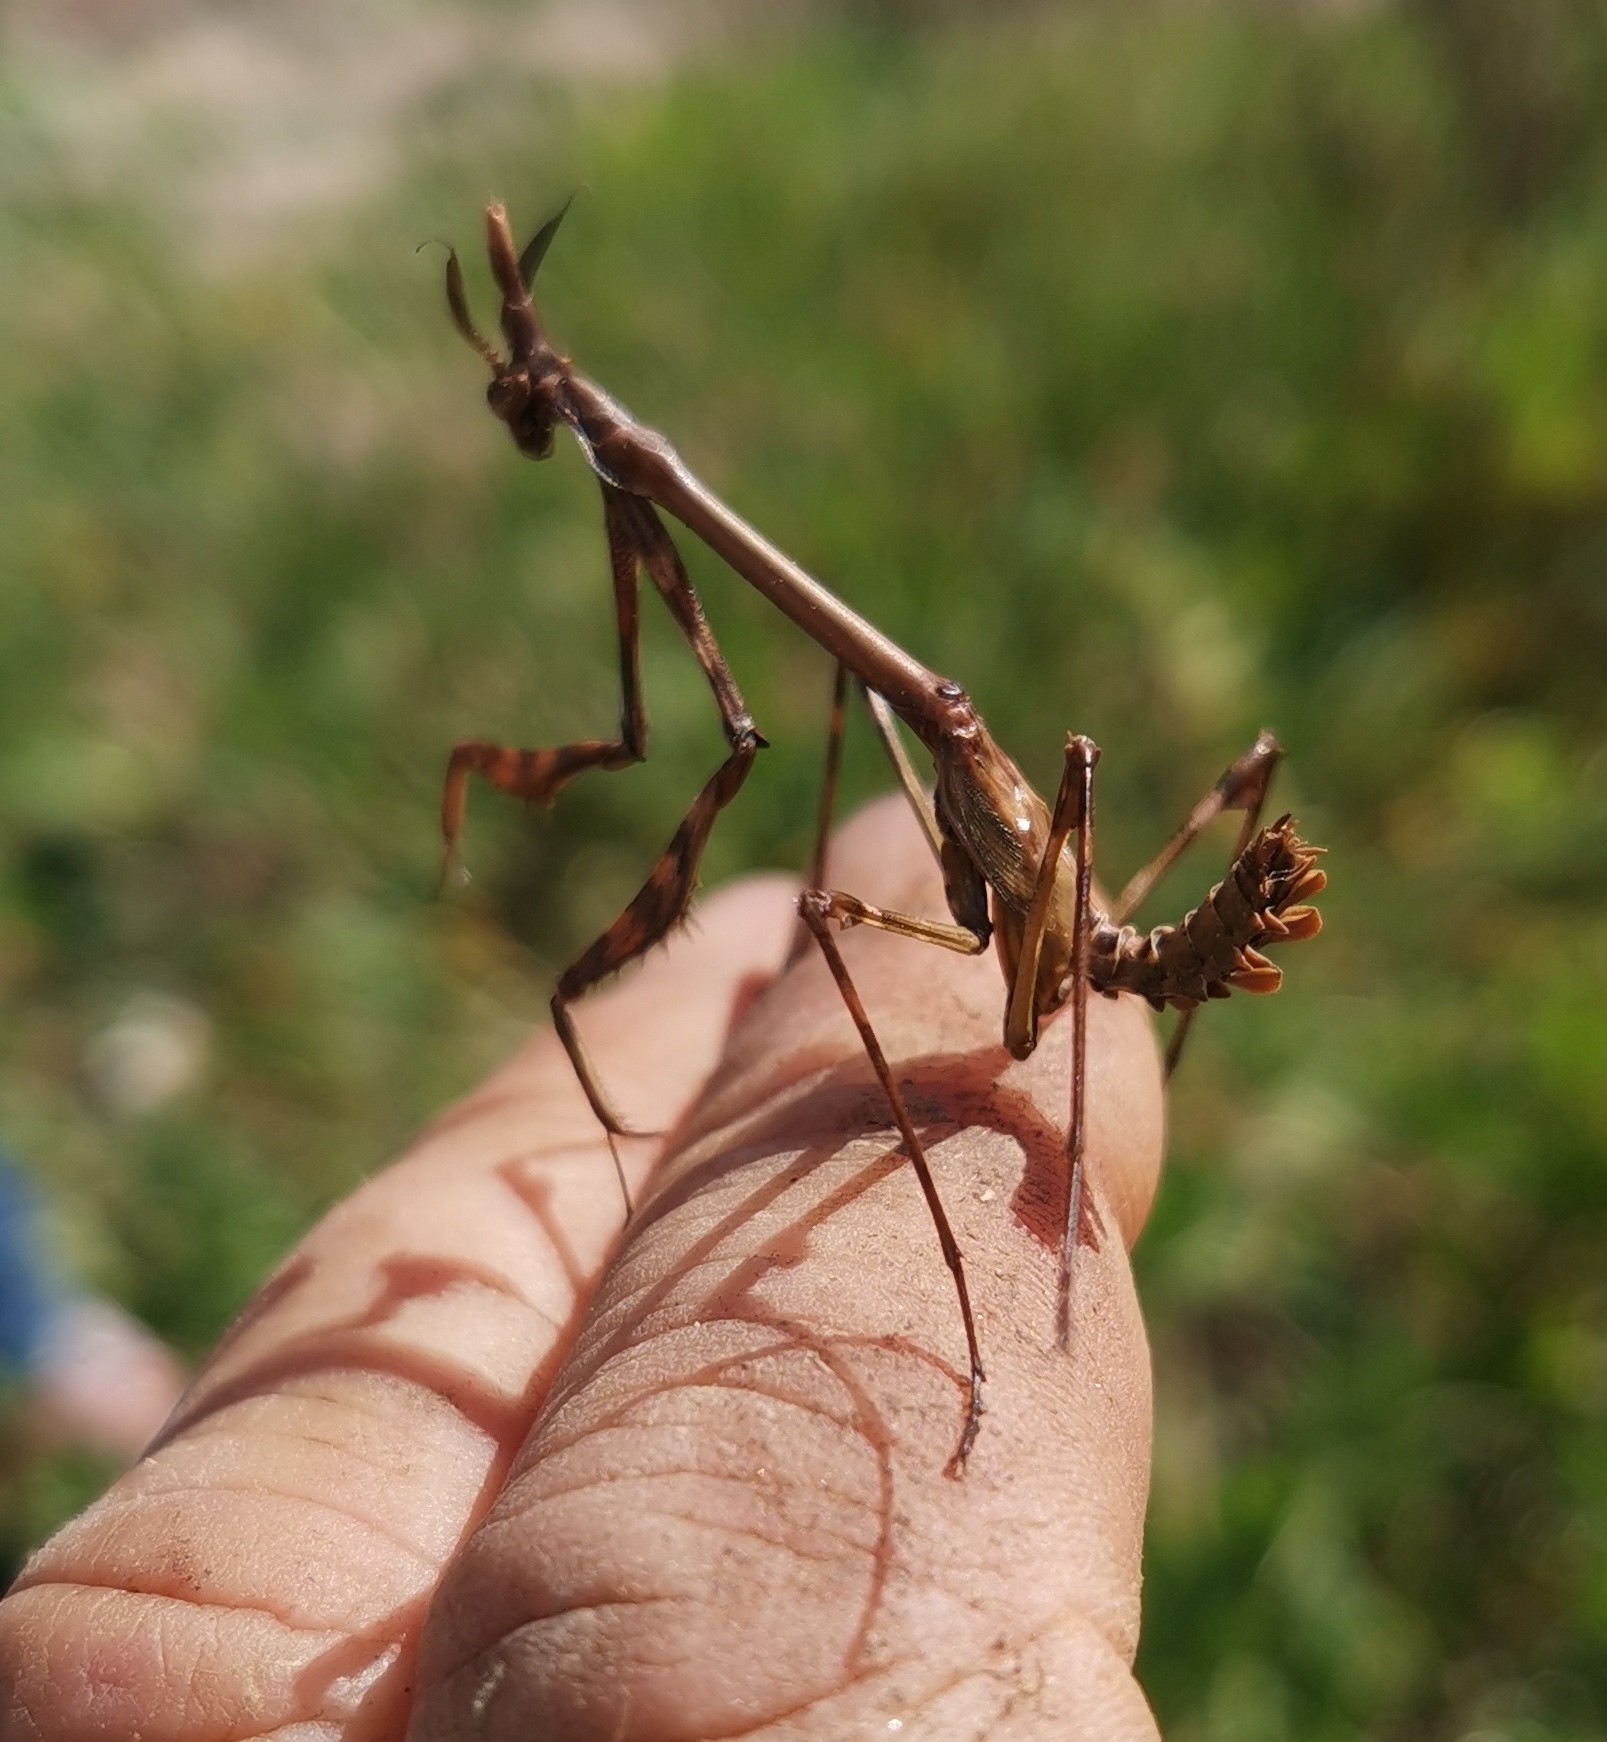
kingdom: Animalia
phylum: Arthropoda
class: Insecta
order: Mantodea
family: Empusidae
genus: Empusa
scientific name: Empusa pennata
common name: Conehead mantis
